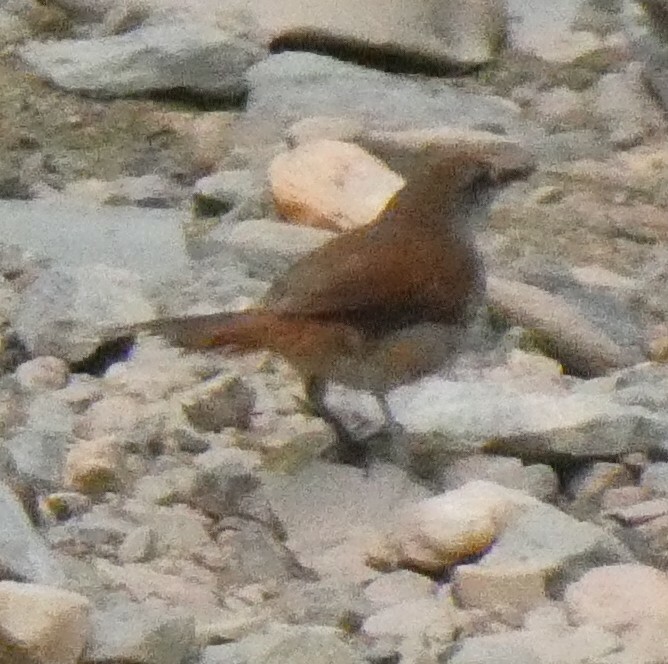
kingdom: Animalia
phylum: Chordata
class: Aves
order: Passeriformes
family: Furnariidae
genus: Certhiaxis
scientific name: Certhiaxis cinnamomeus
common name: Yellow-chinned spinetail
